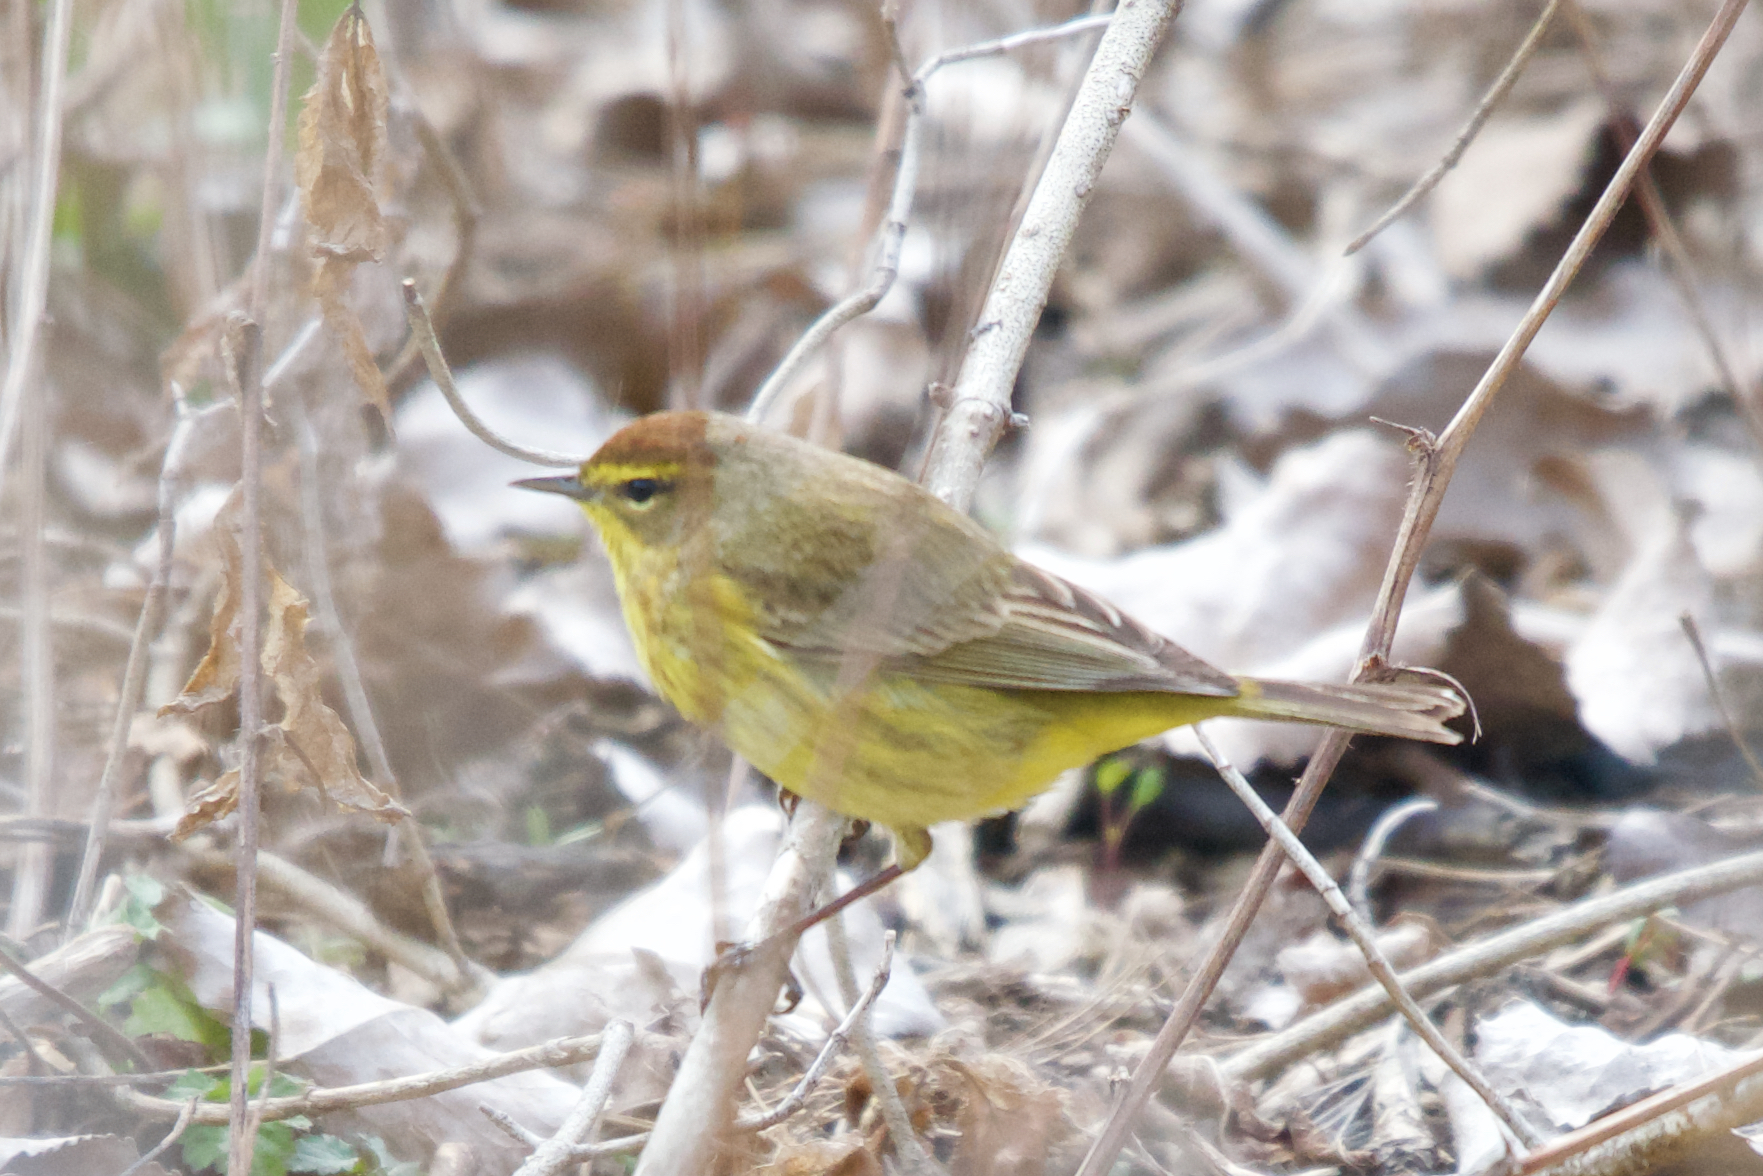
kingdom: Animalia
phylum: Chordata
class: Aves
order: Passeriformes
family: Parulidae
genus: Setophaga
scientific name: Setophaga palmarum
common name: Palm warbler
